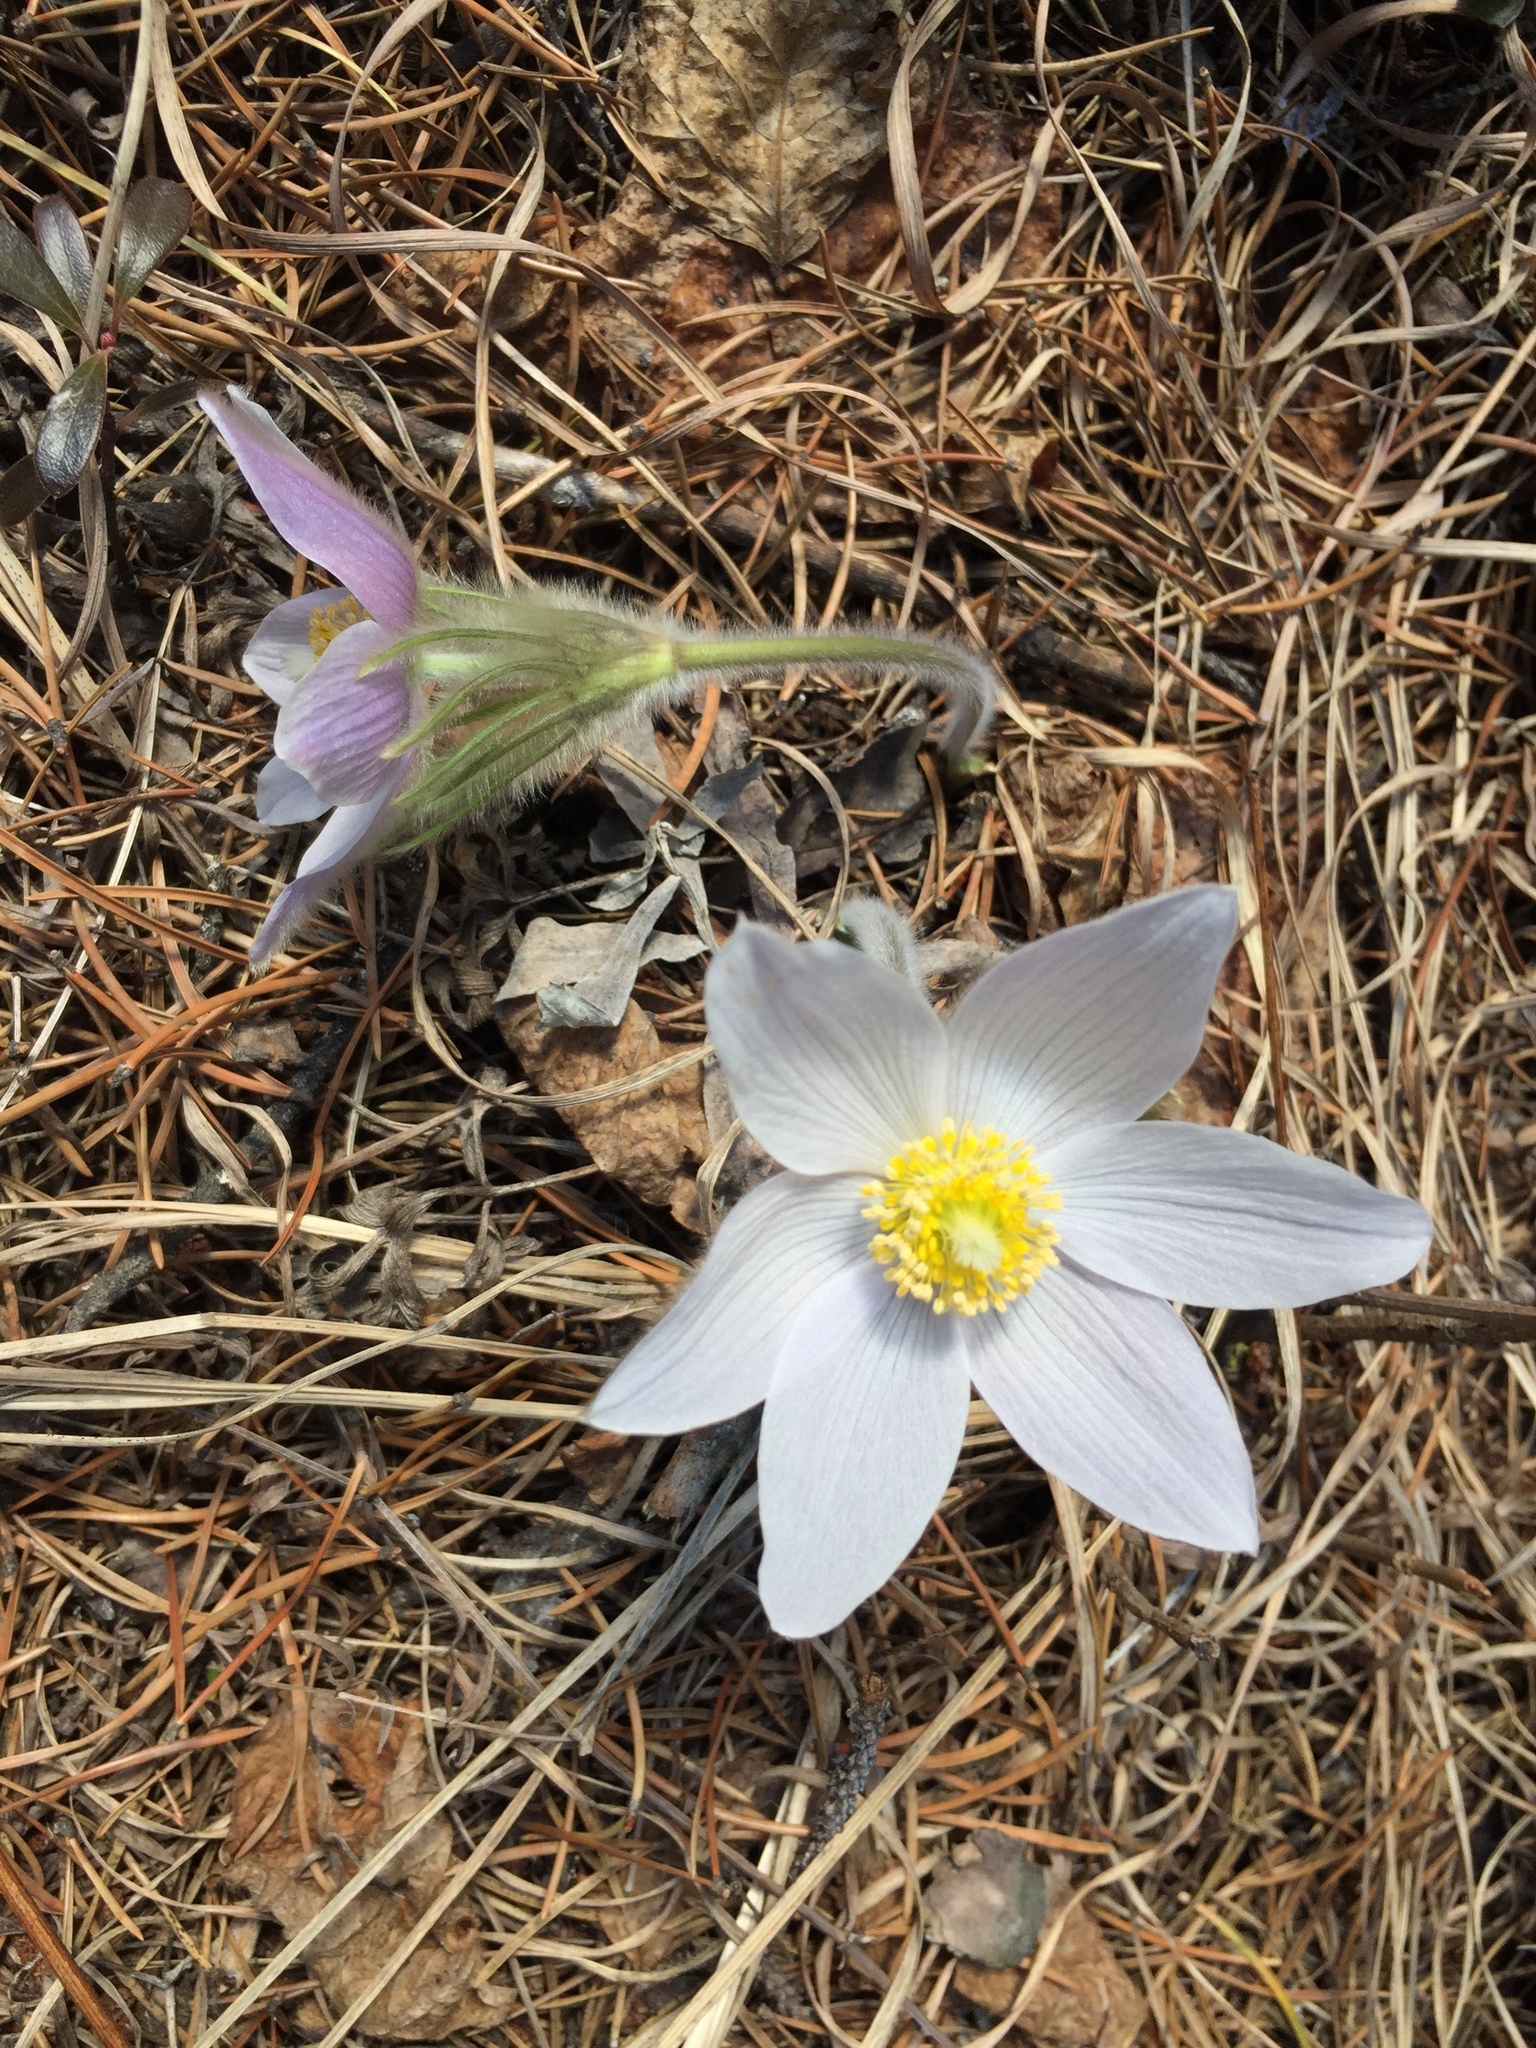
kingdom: Plantae
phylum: Tracheophyta
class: Magnoliopsida
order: Ranunculales
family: Ranunculaceae
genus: Pulsatilla
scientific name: Pulsatilla nuttalliana
